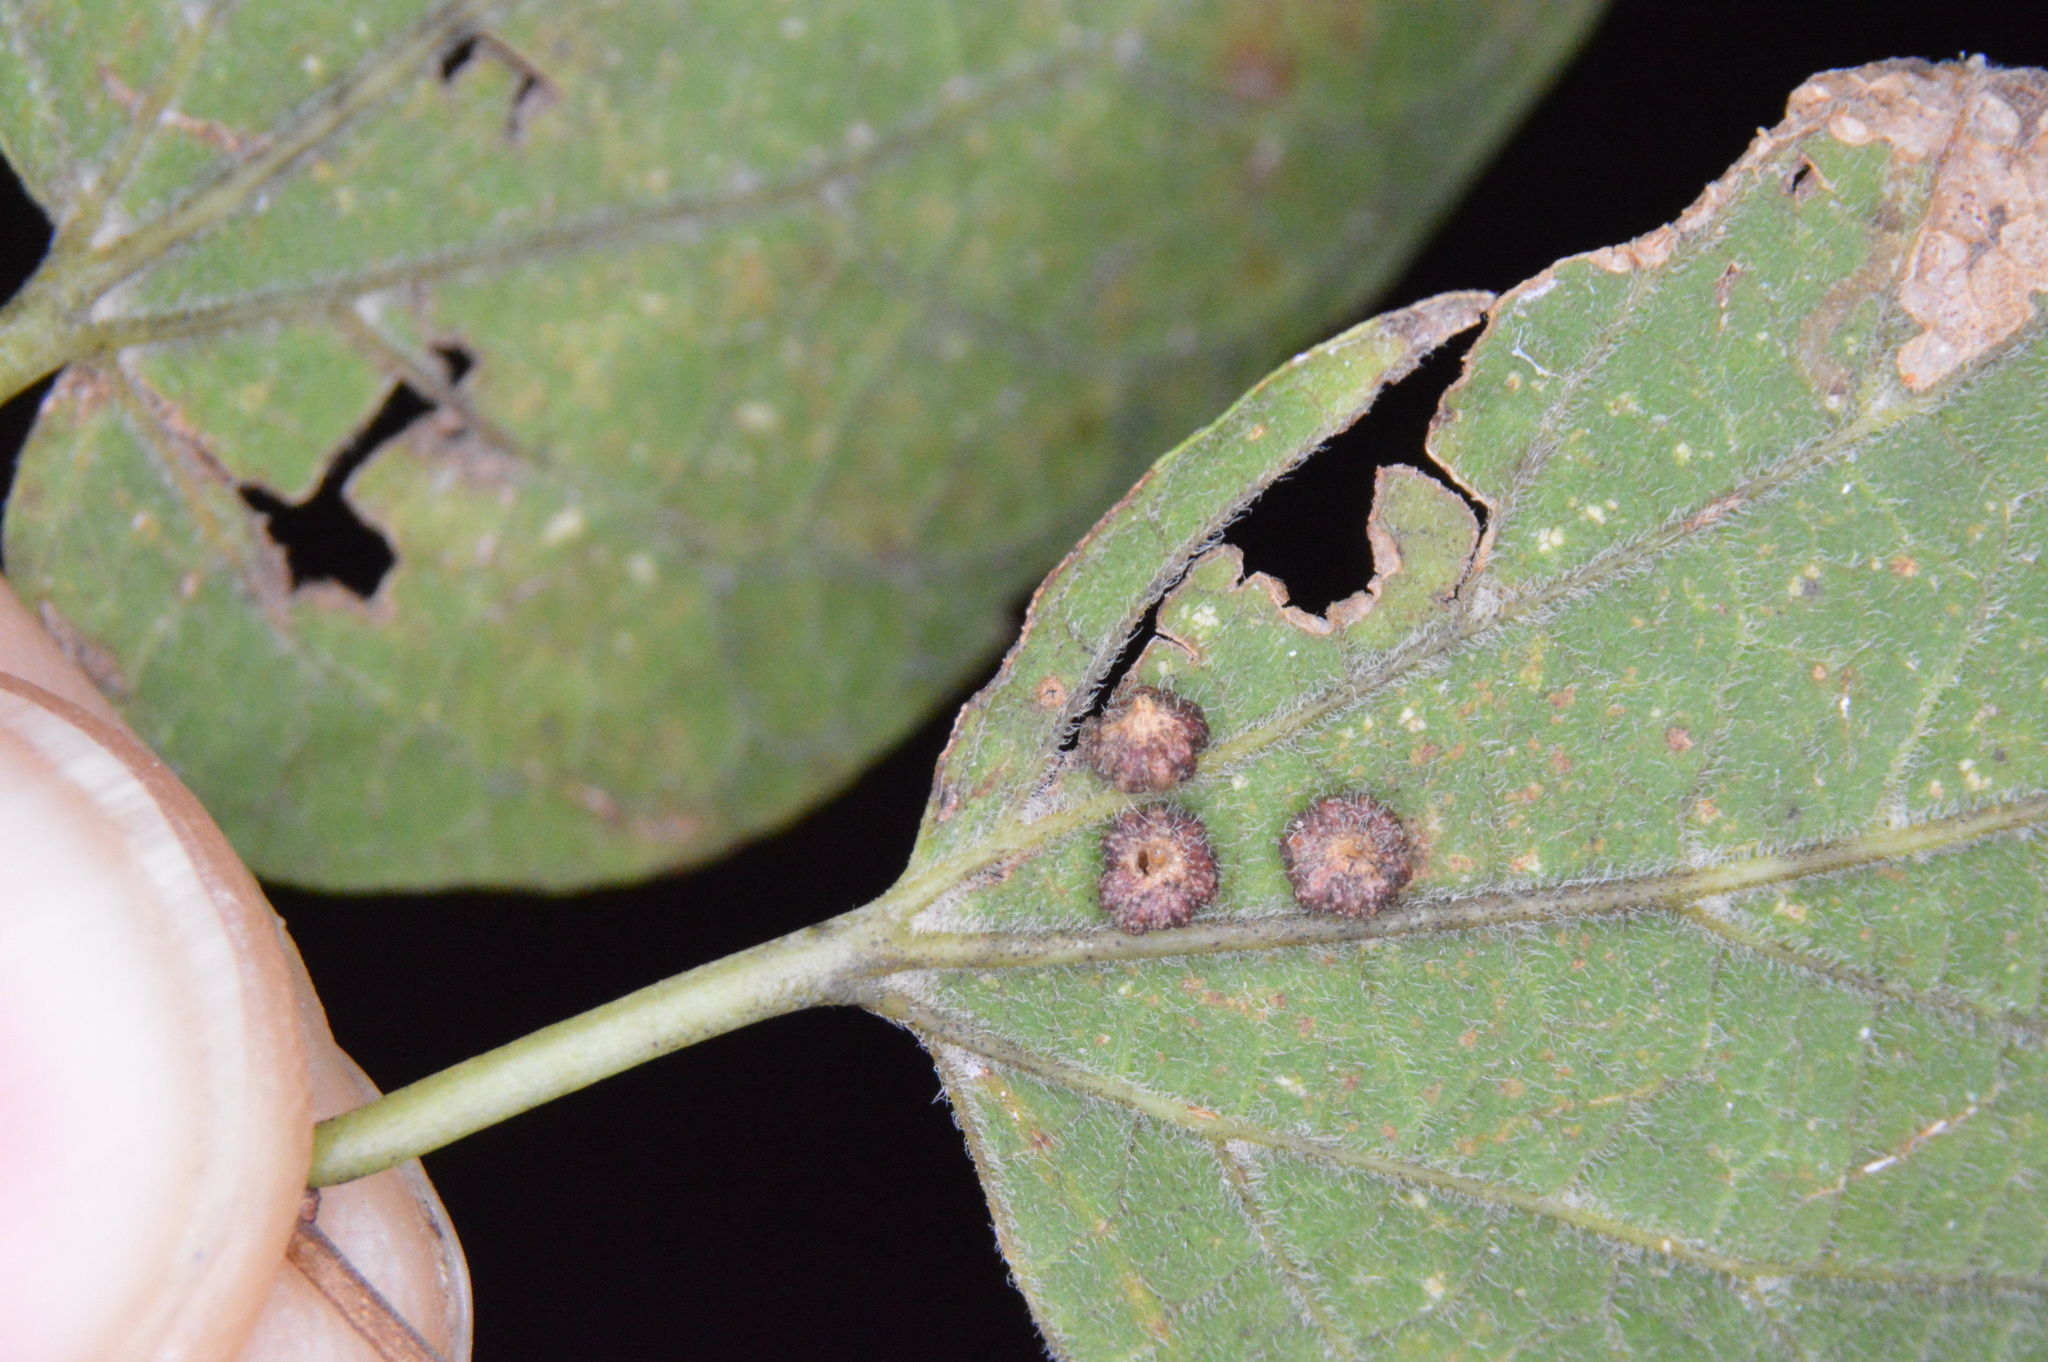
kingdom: Animalia
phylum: Arthropoda
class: Insecta
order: Diptera
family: Cecidomyiidae
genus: Celticecis
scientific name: Celticecis capsularis
